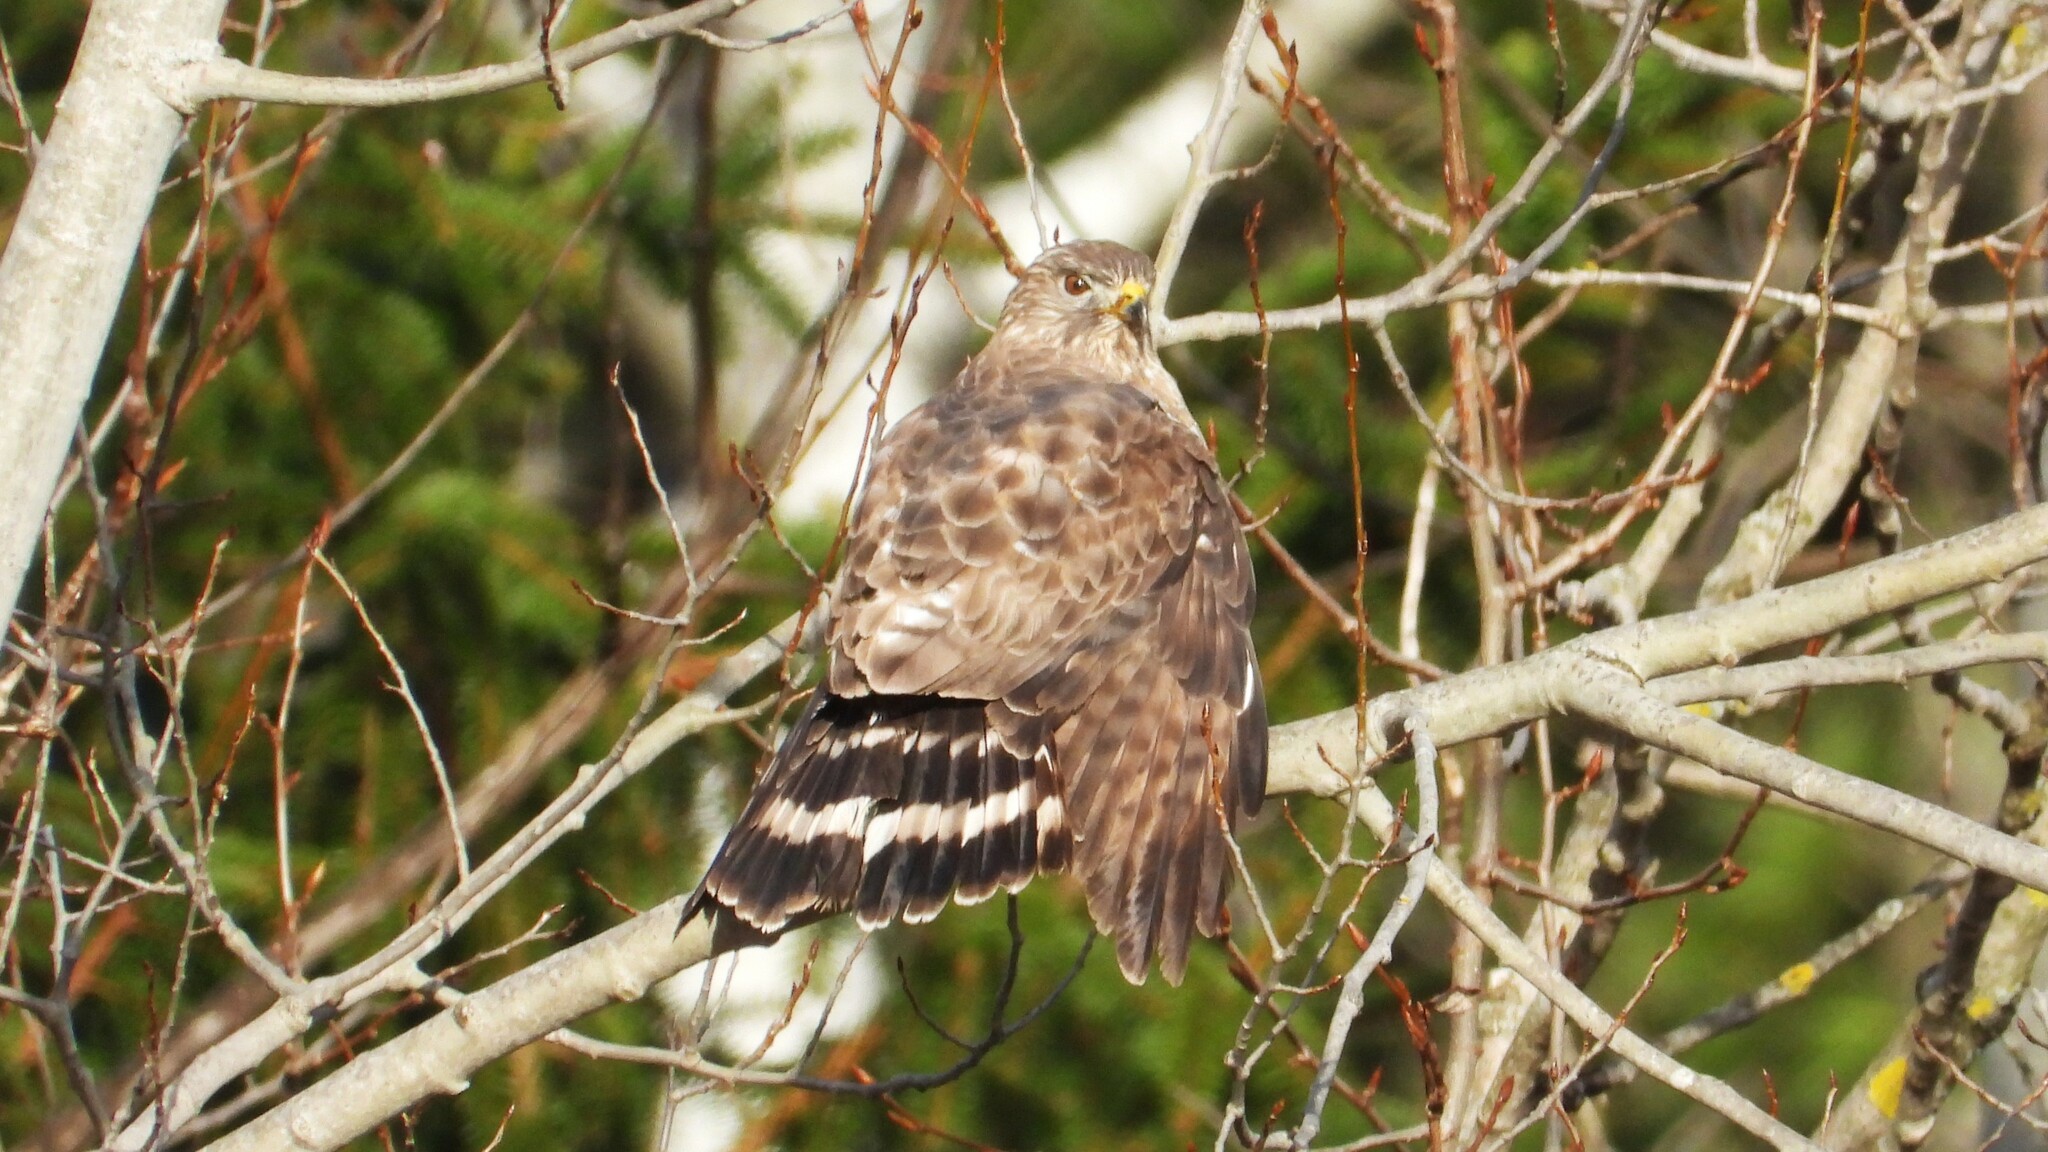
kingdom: Animalia
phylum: Chordata
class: Aves
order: Accipitriformes
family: Accipitridae
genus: Buteo
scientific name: Buteo platypterus
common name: Broad-winged hawk
